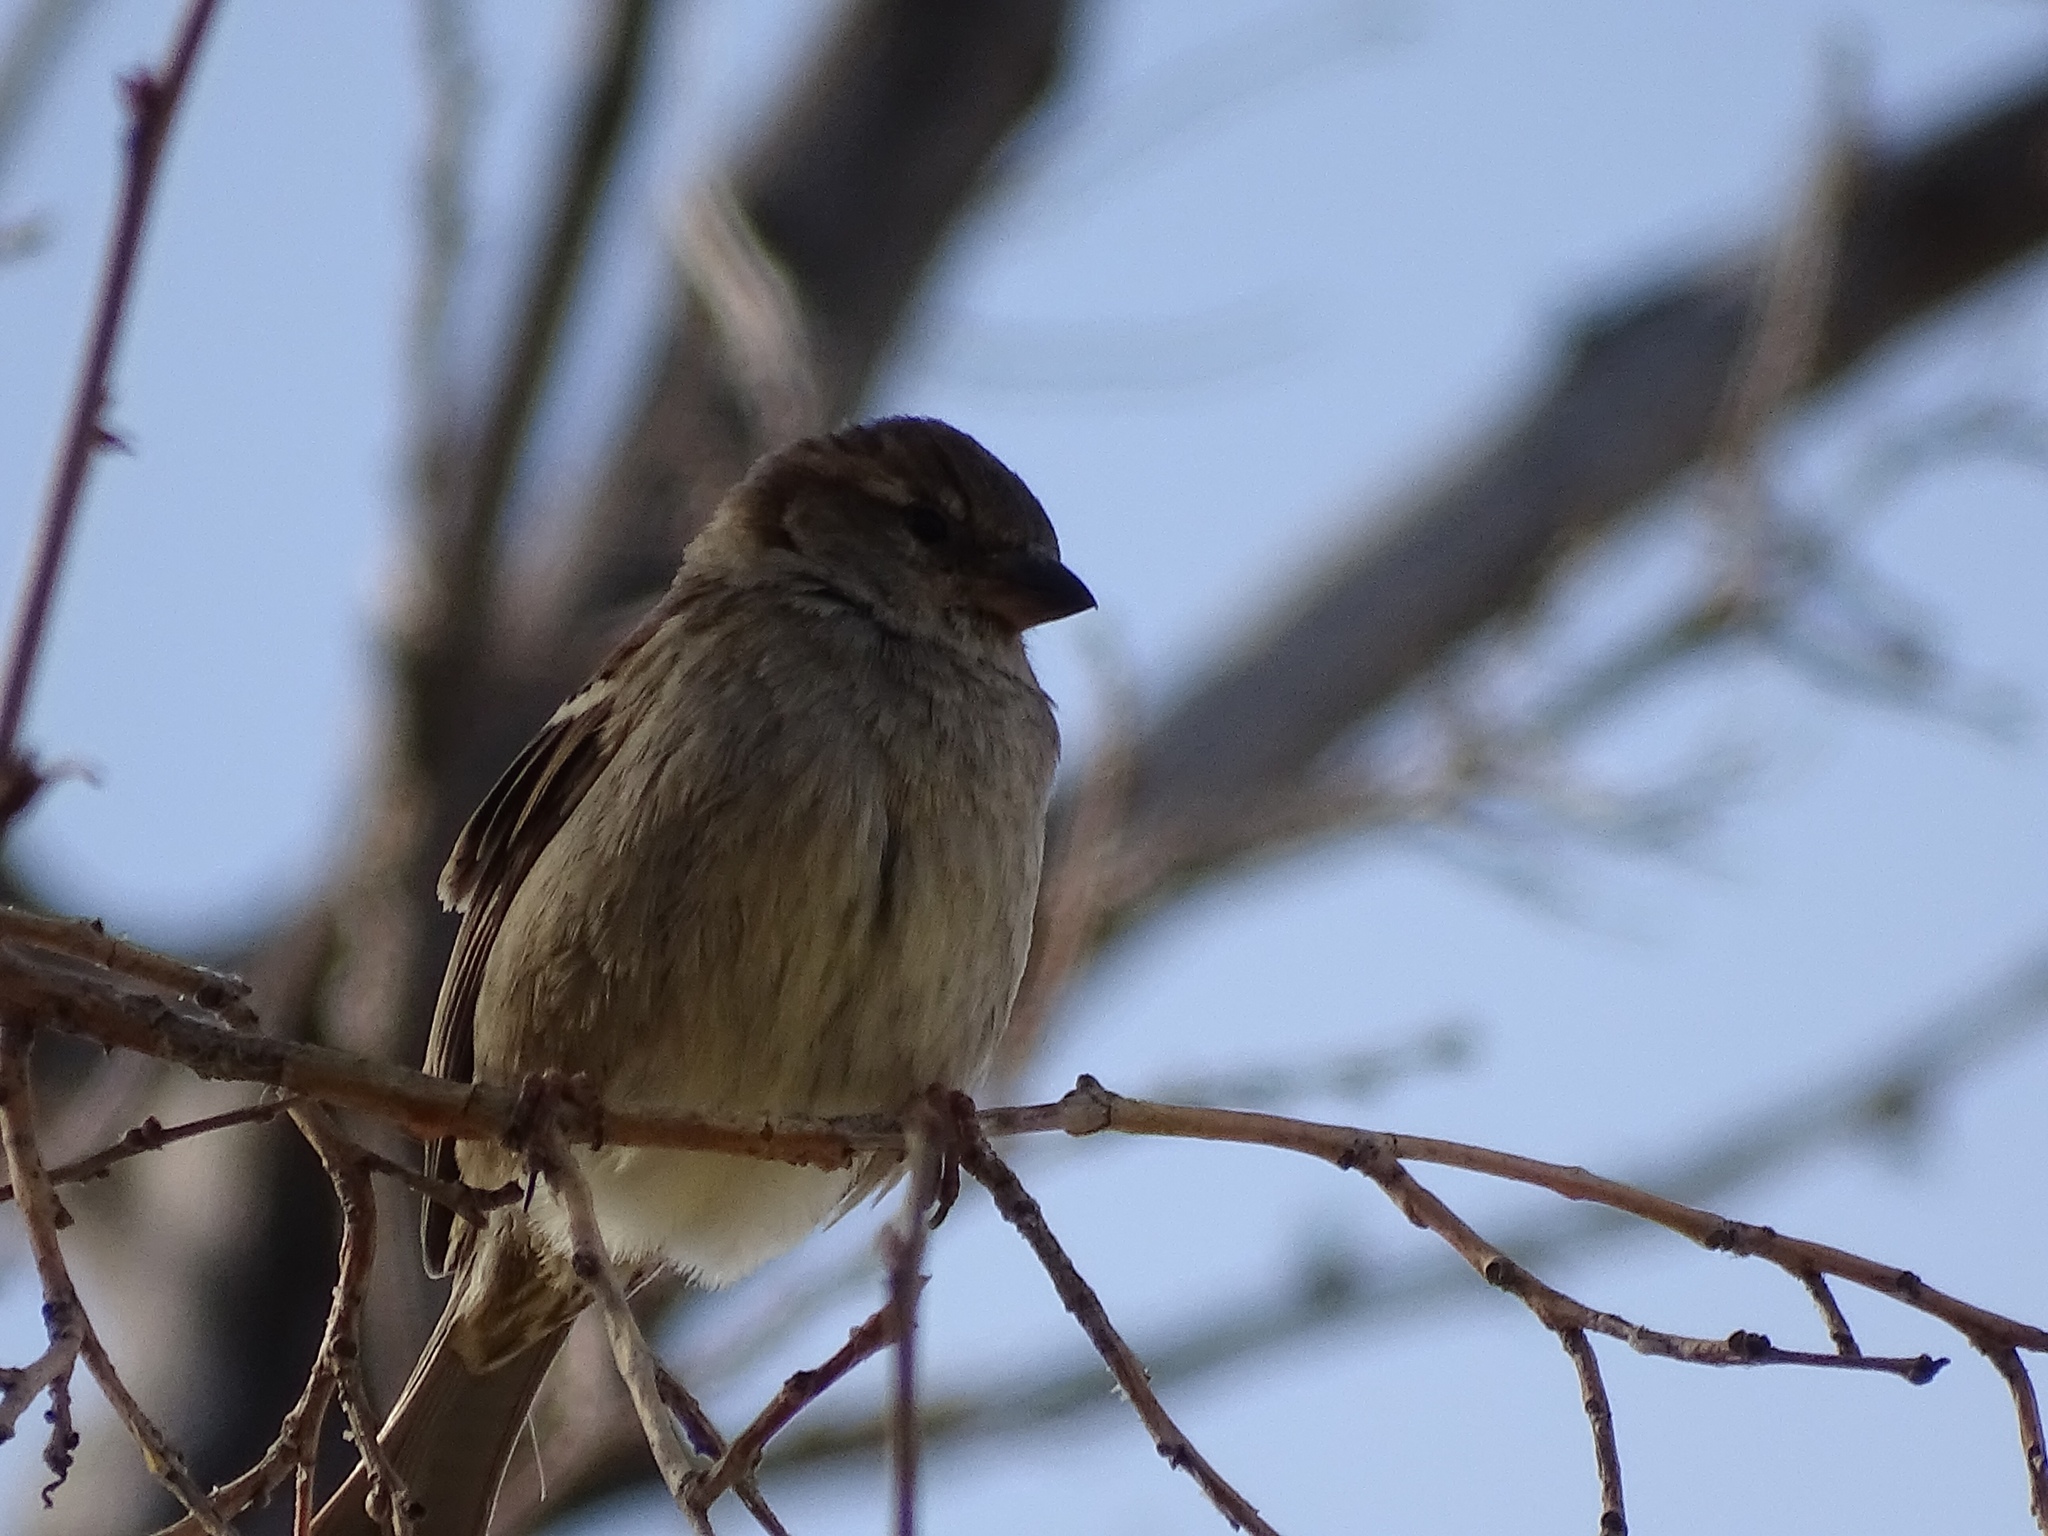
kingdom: Animalia
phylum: Chordata
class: Aves
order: Passeriformes
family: Passeridae
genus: Passer
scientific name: Passer domesticus
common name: House sparrow
